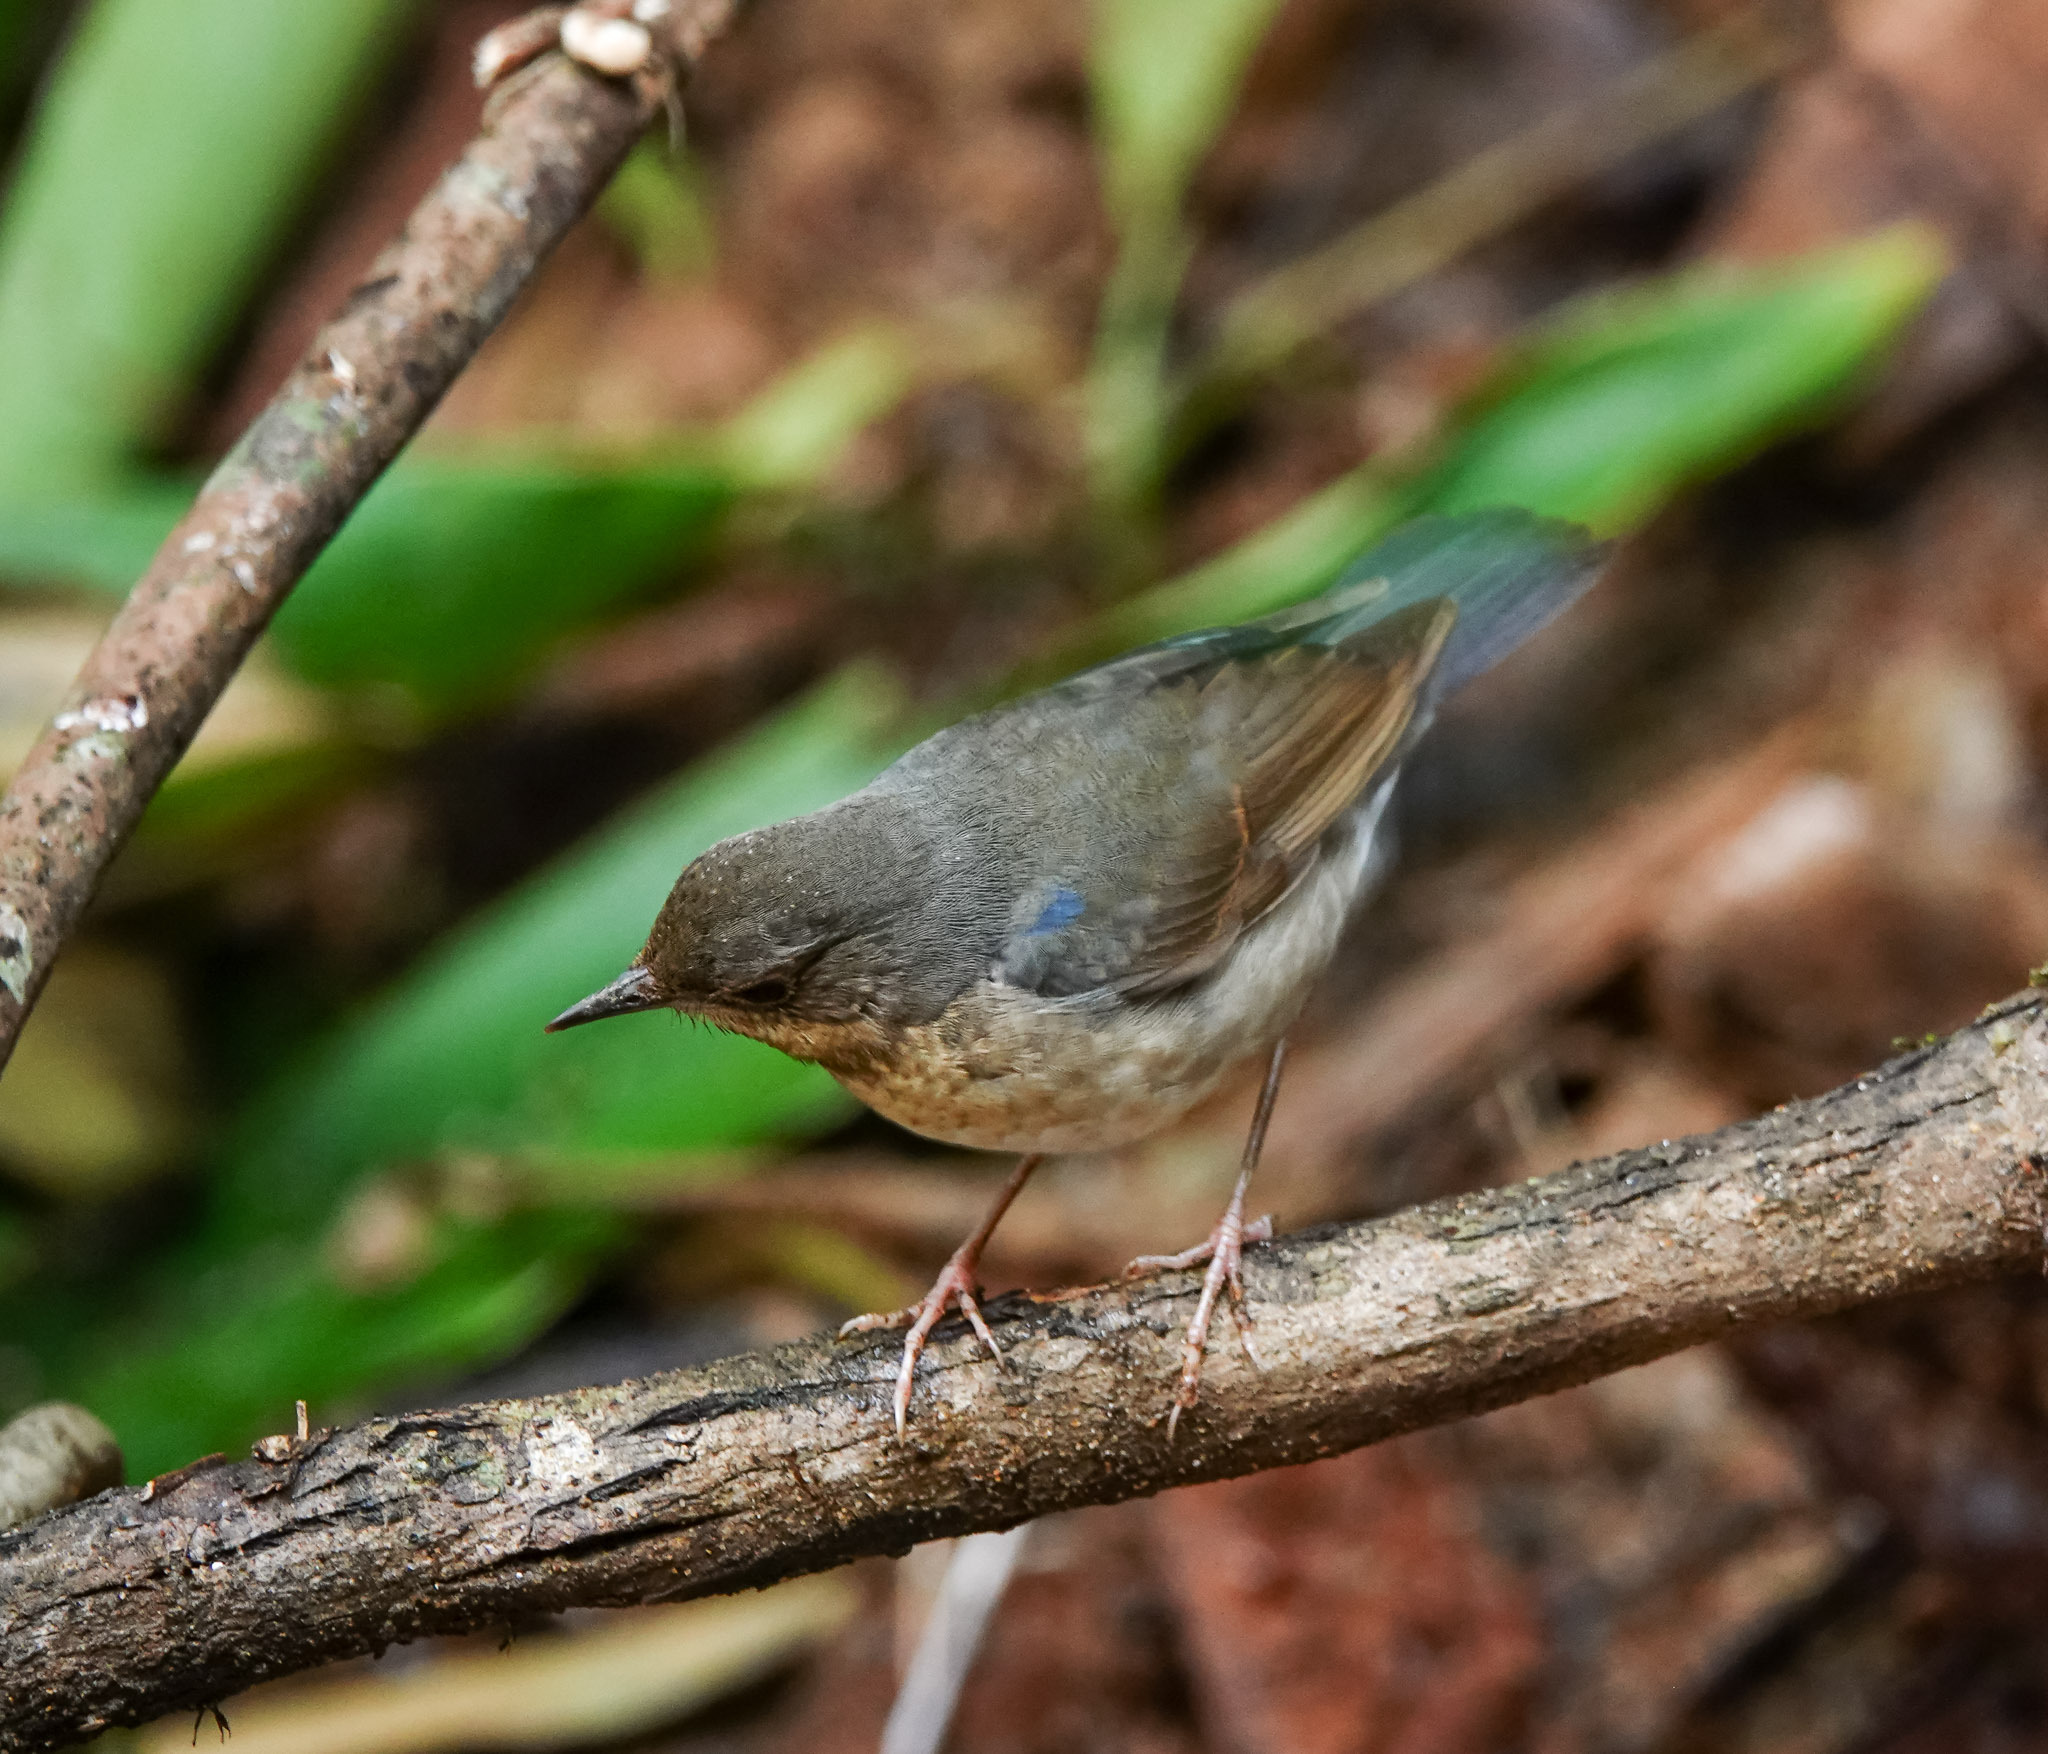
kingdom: Animalia
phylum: Chordata
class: Aves
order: Passeriformes
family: Muscicapidae
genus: Luscinia
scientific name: Luscinia cyane
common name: Siberian blue robin
